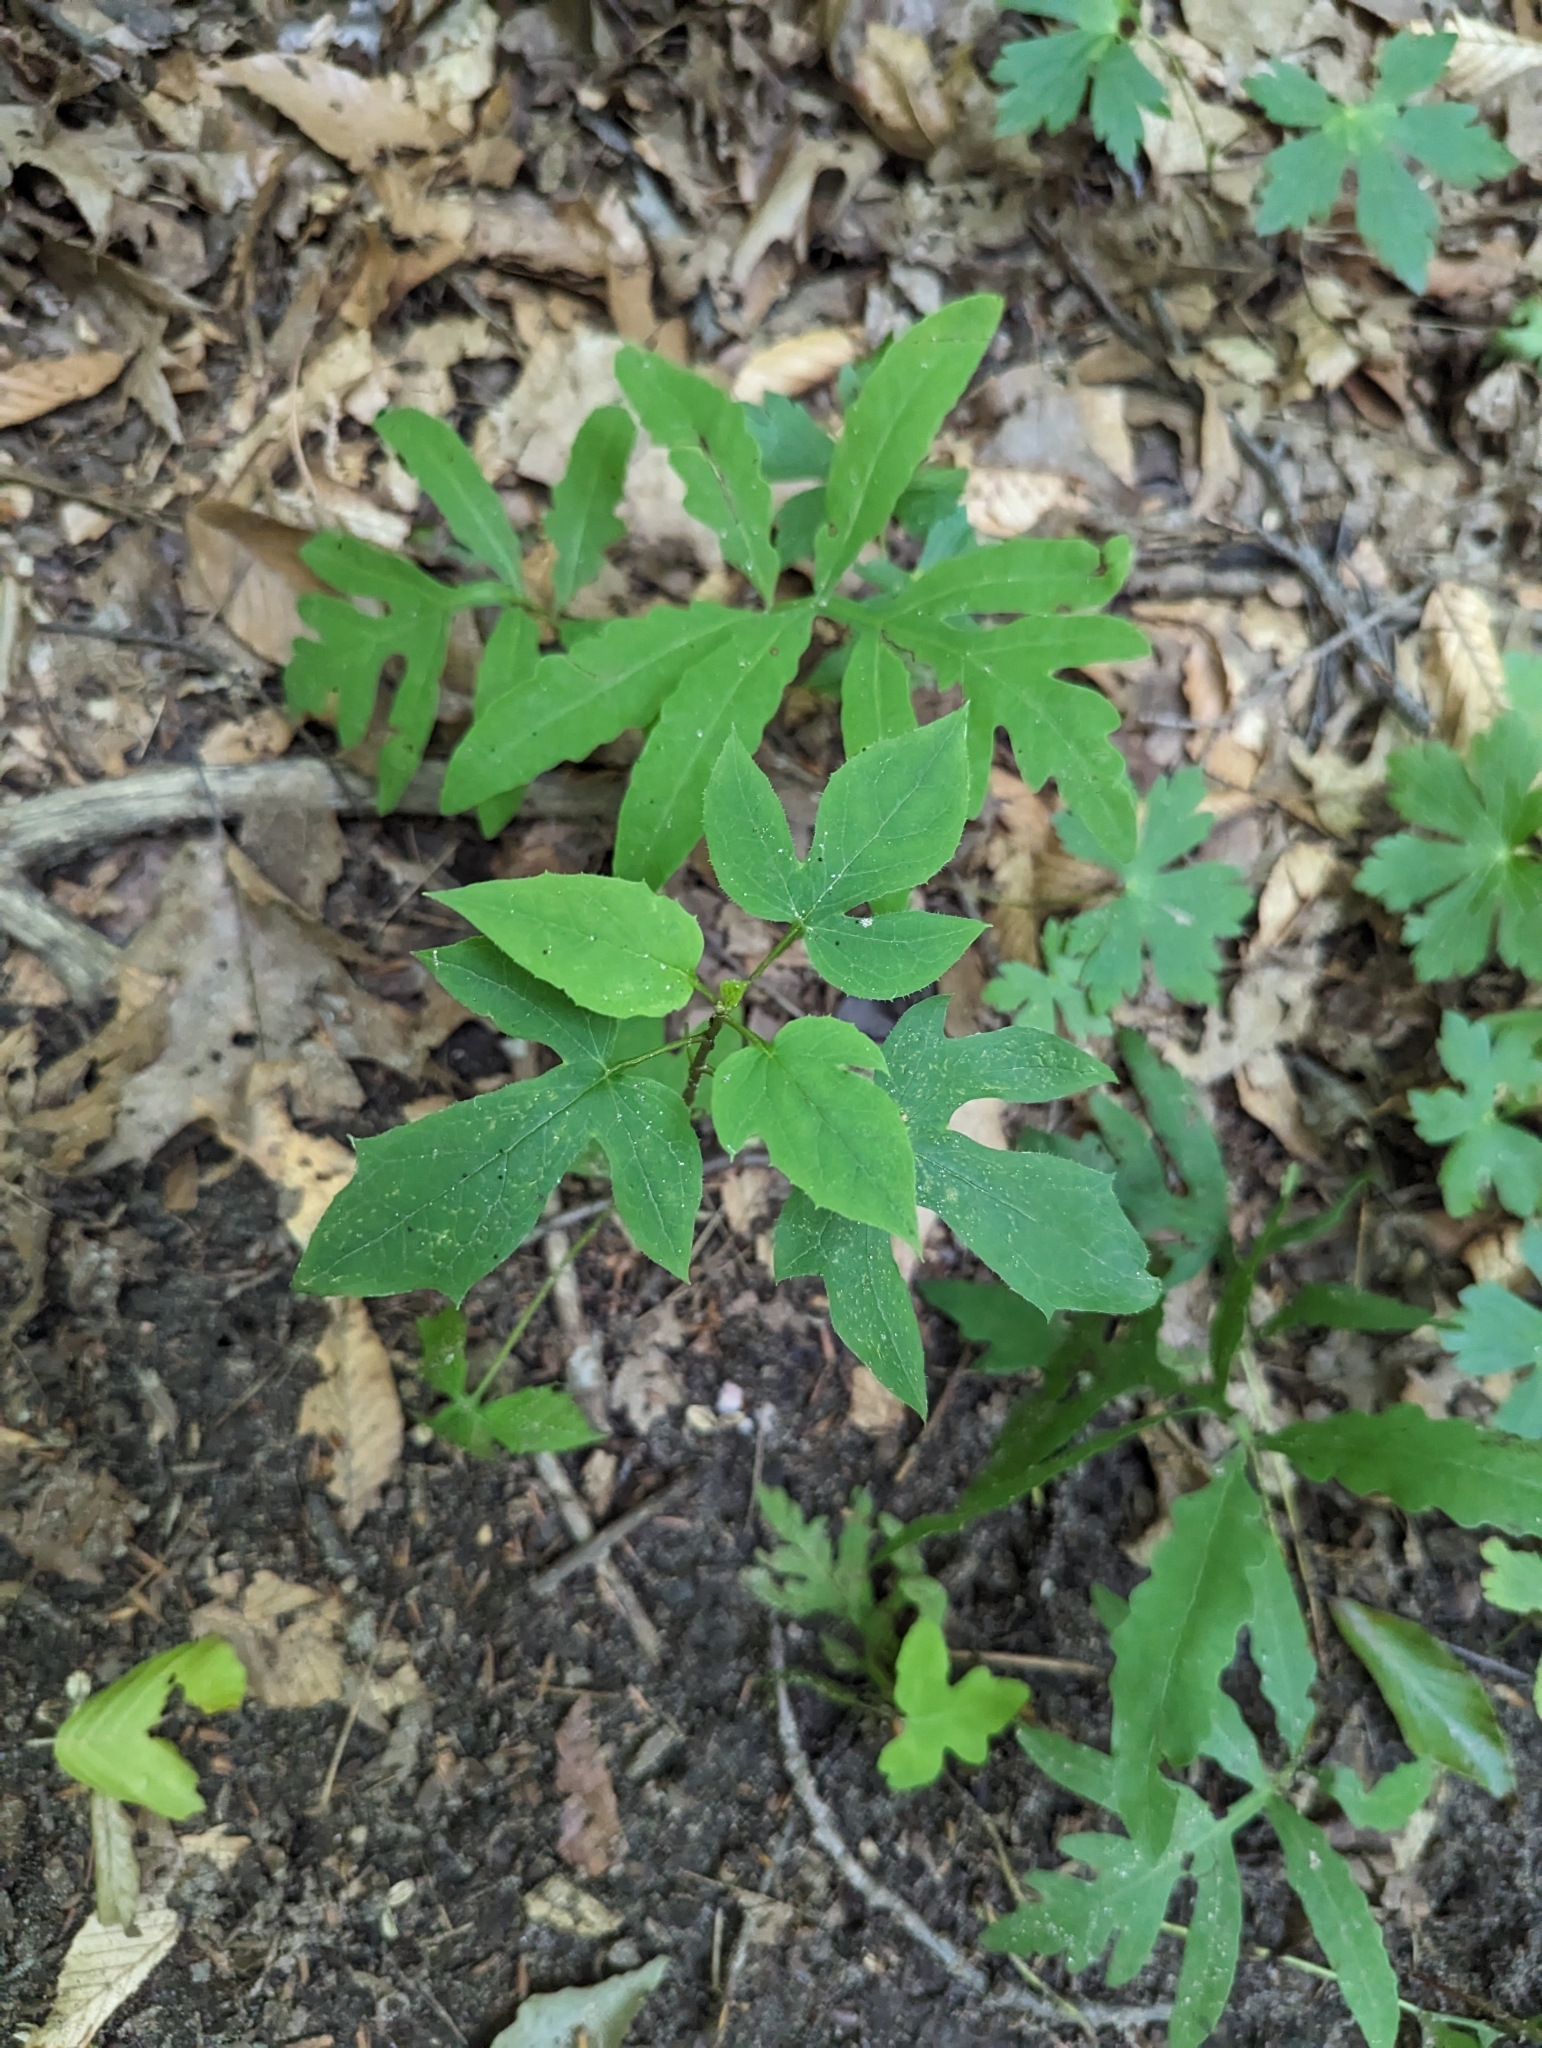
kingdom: Plantae
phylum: Tracheophyta
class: Magnoliopsida
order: Asterales
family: Asteraceae
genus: Nabalus
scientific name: Nabalus altissima
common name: Tall rattlesnakeroot
